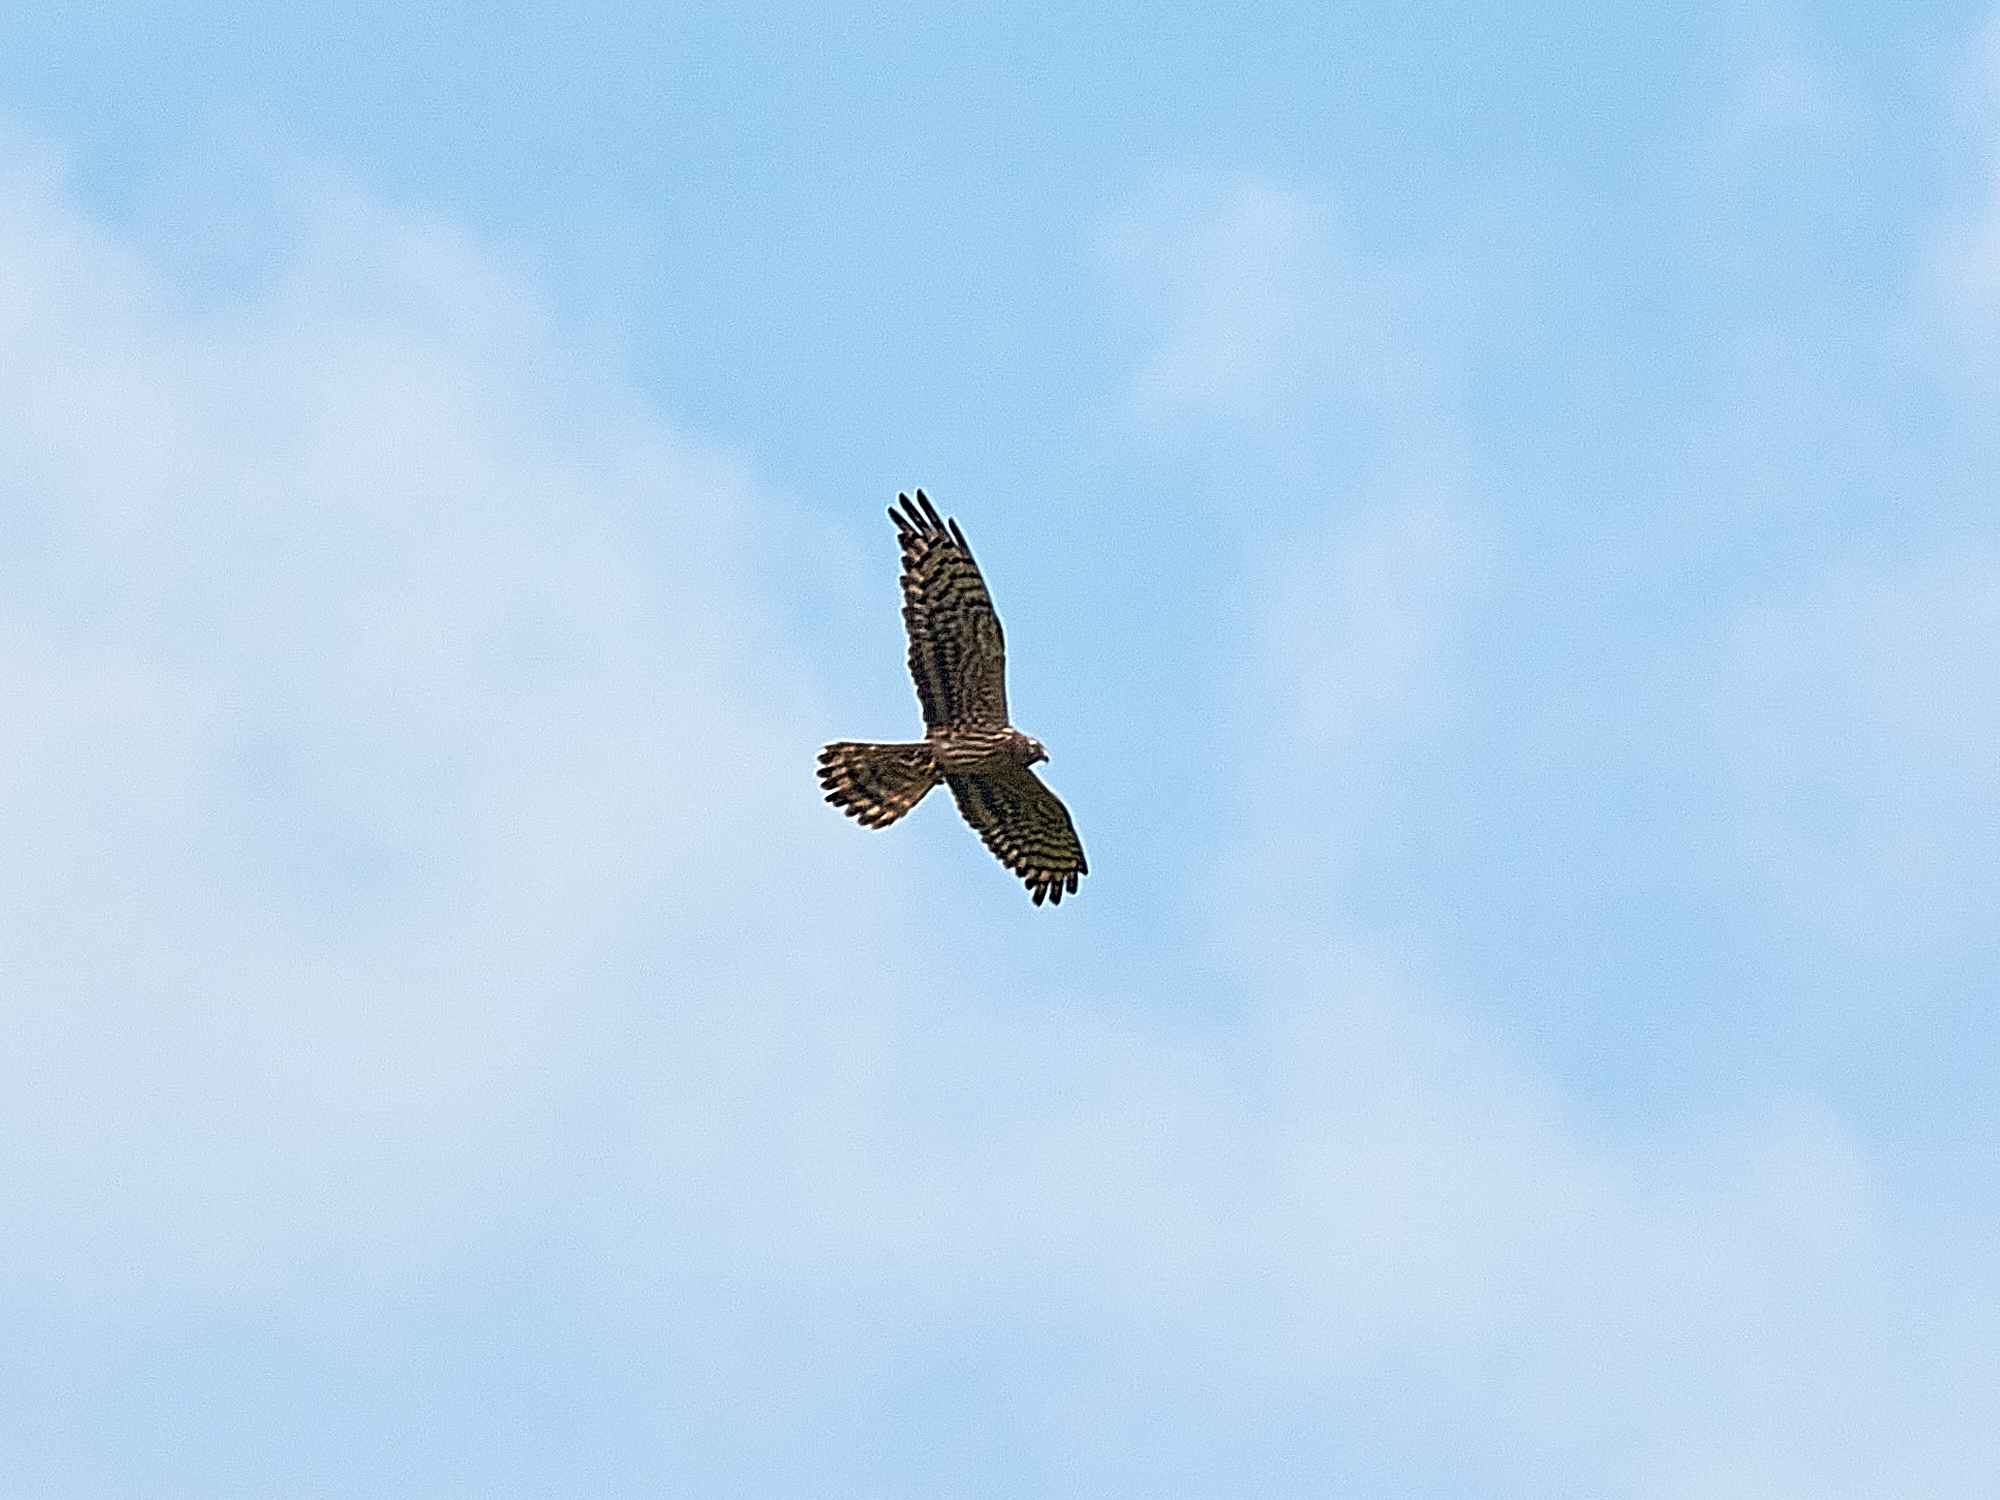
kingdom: Animalia
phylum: Chordata
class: Aves
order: Accipitriformes
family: Accipitridae
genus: Circus
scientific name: Circus pygargus
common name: Montagu's harrier
